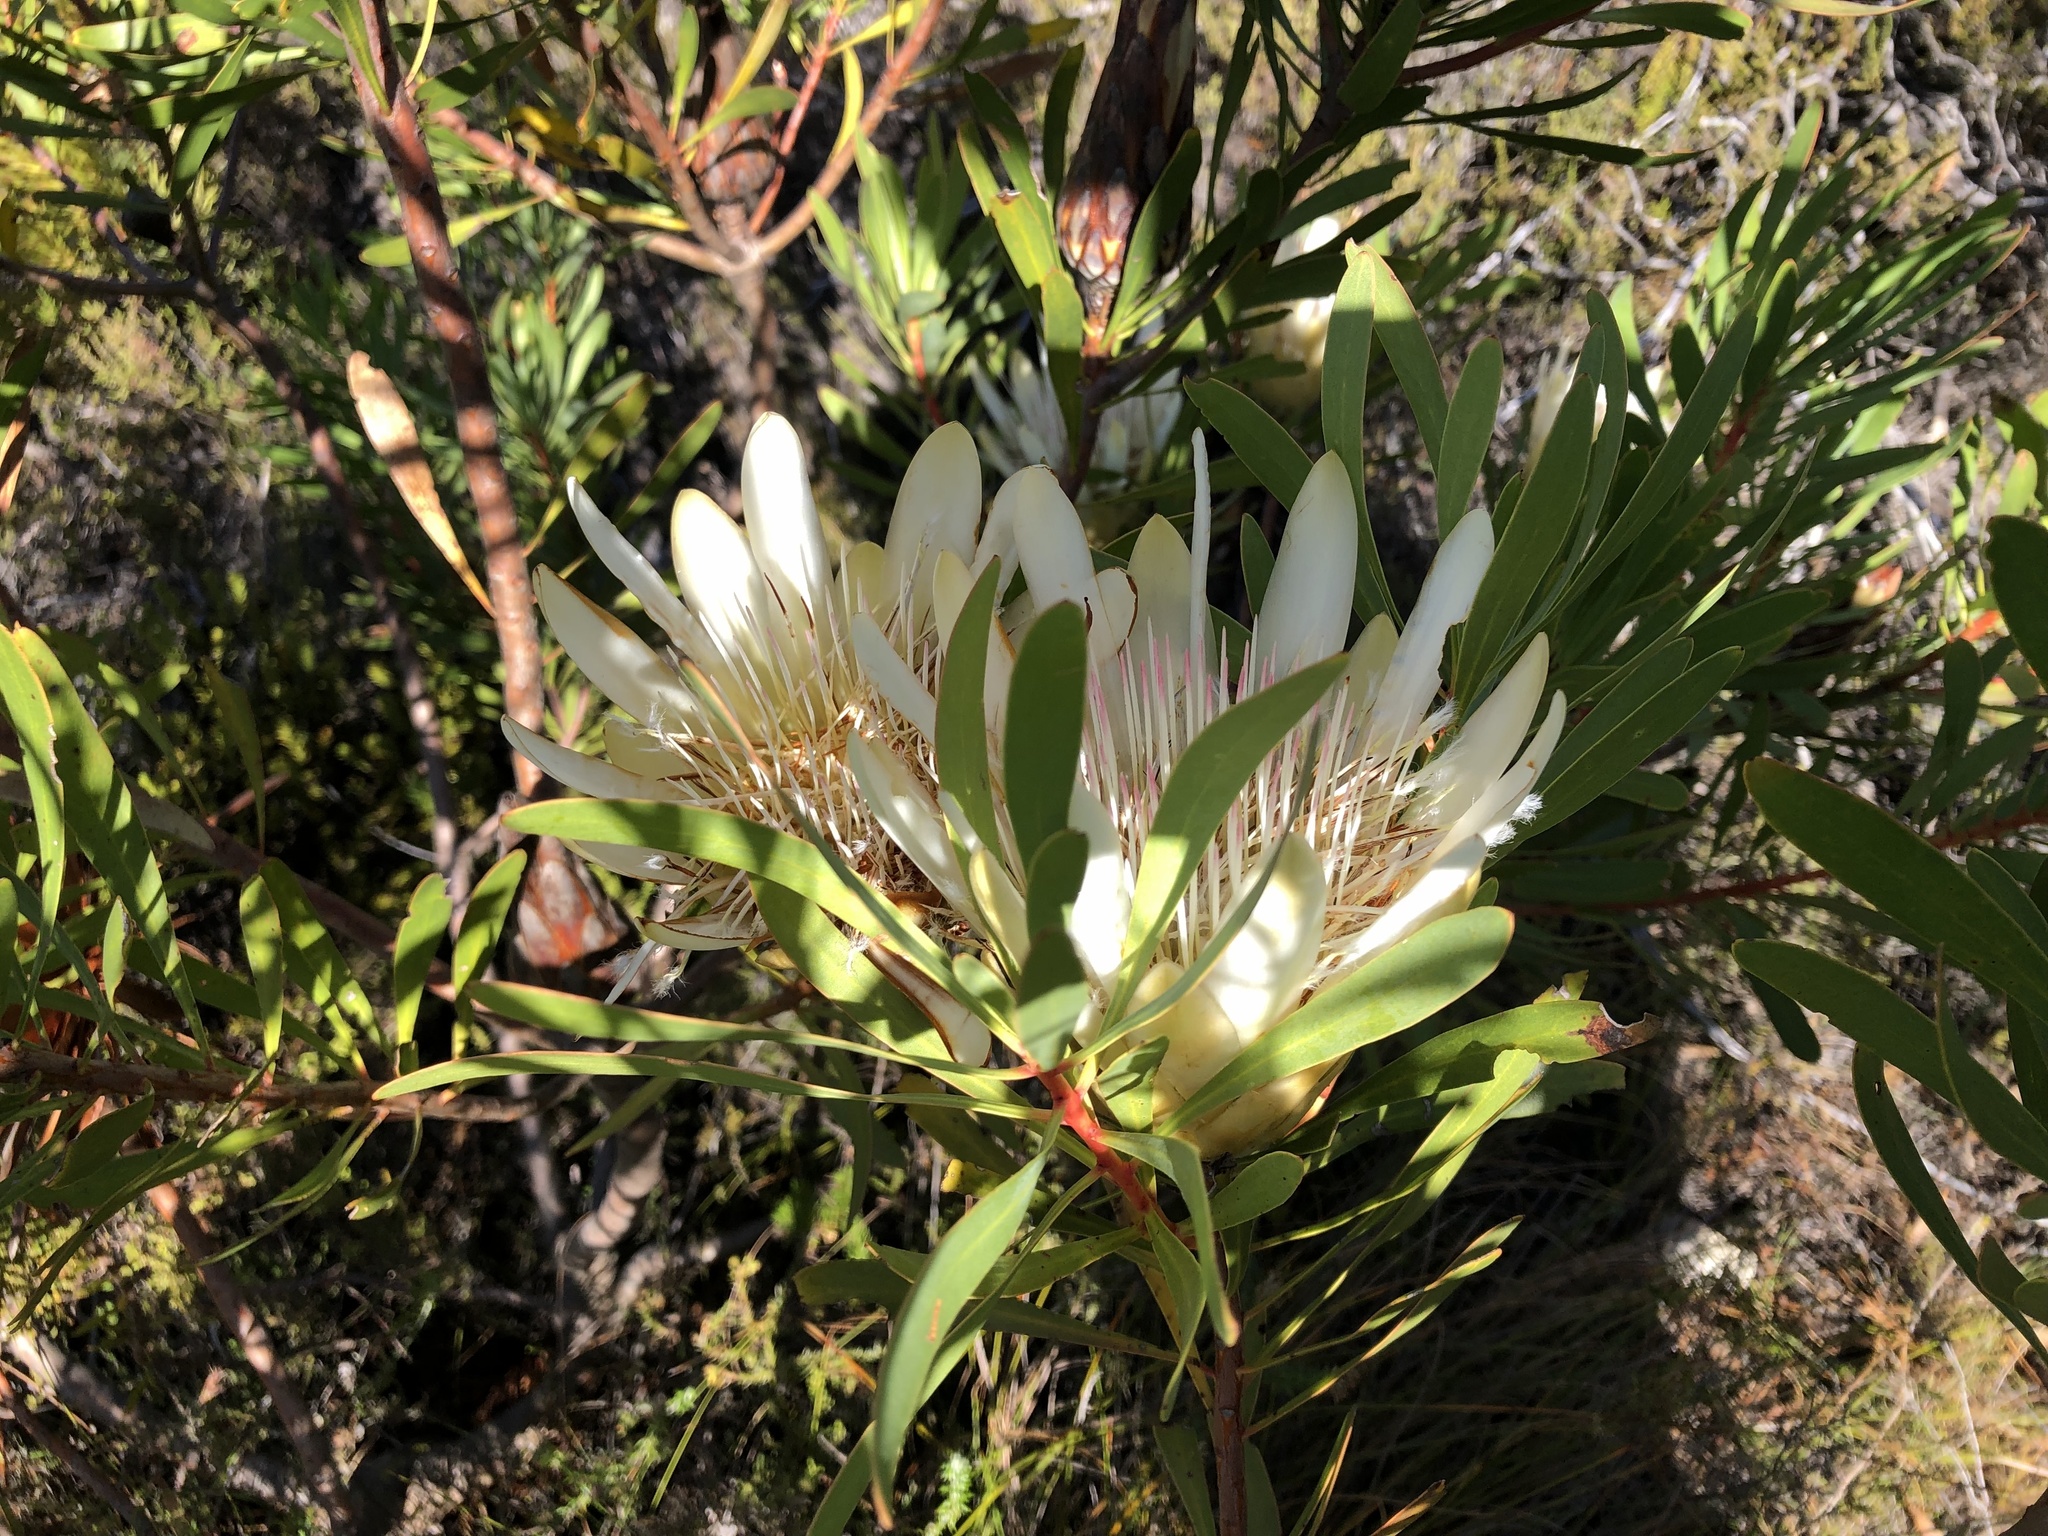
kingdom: Plantae
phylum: Tracheophyta
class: Magnoliopsida
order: Proteales
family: Proteaceae
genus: Protea
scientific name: Protea repens
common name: Sugarbush
